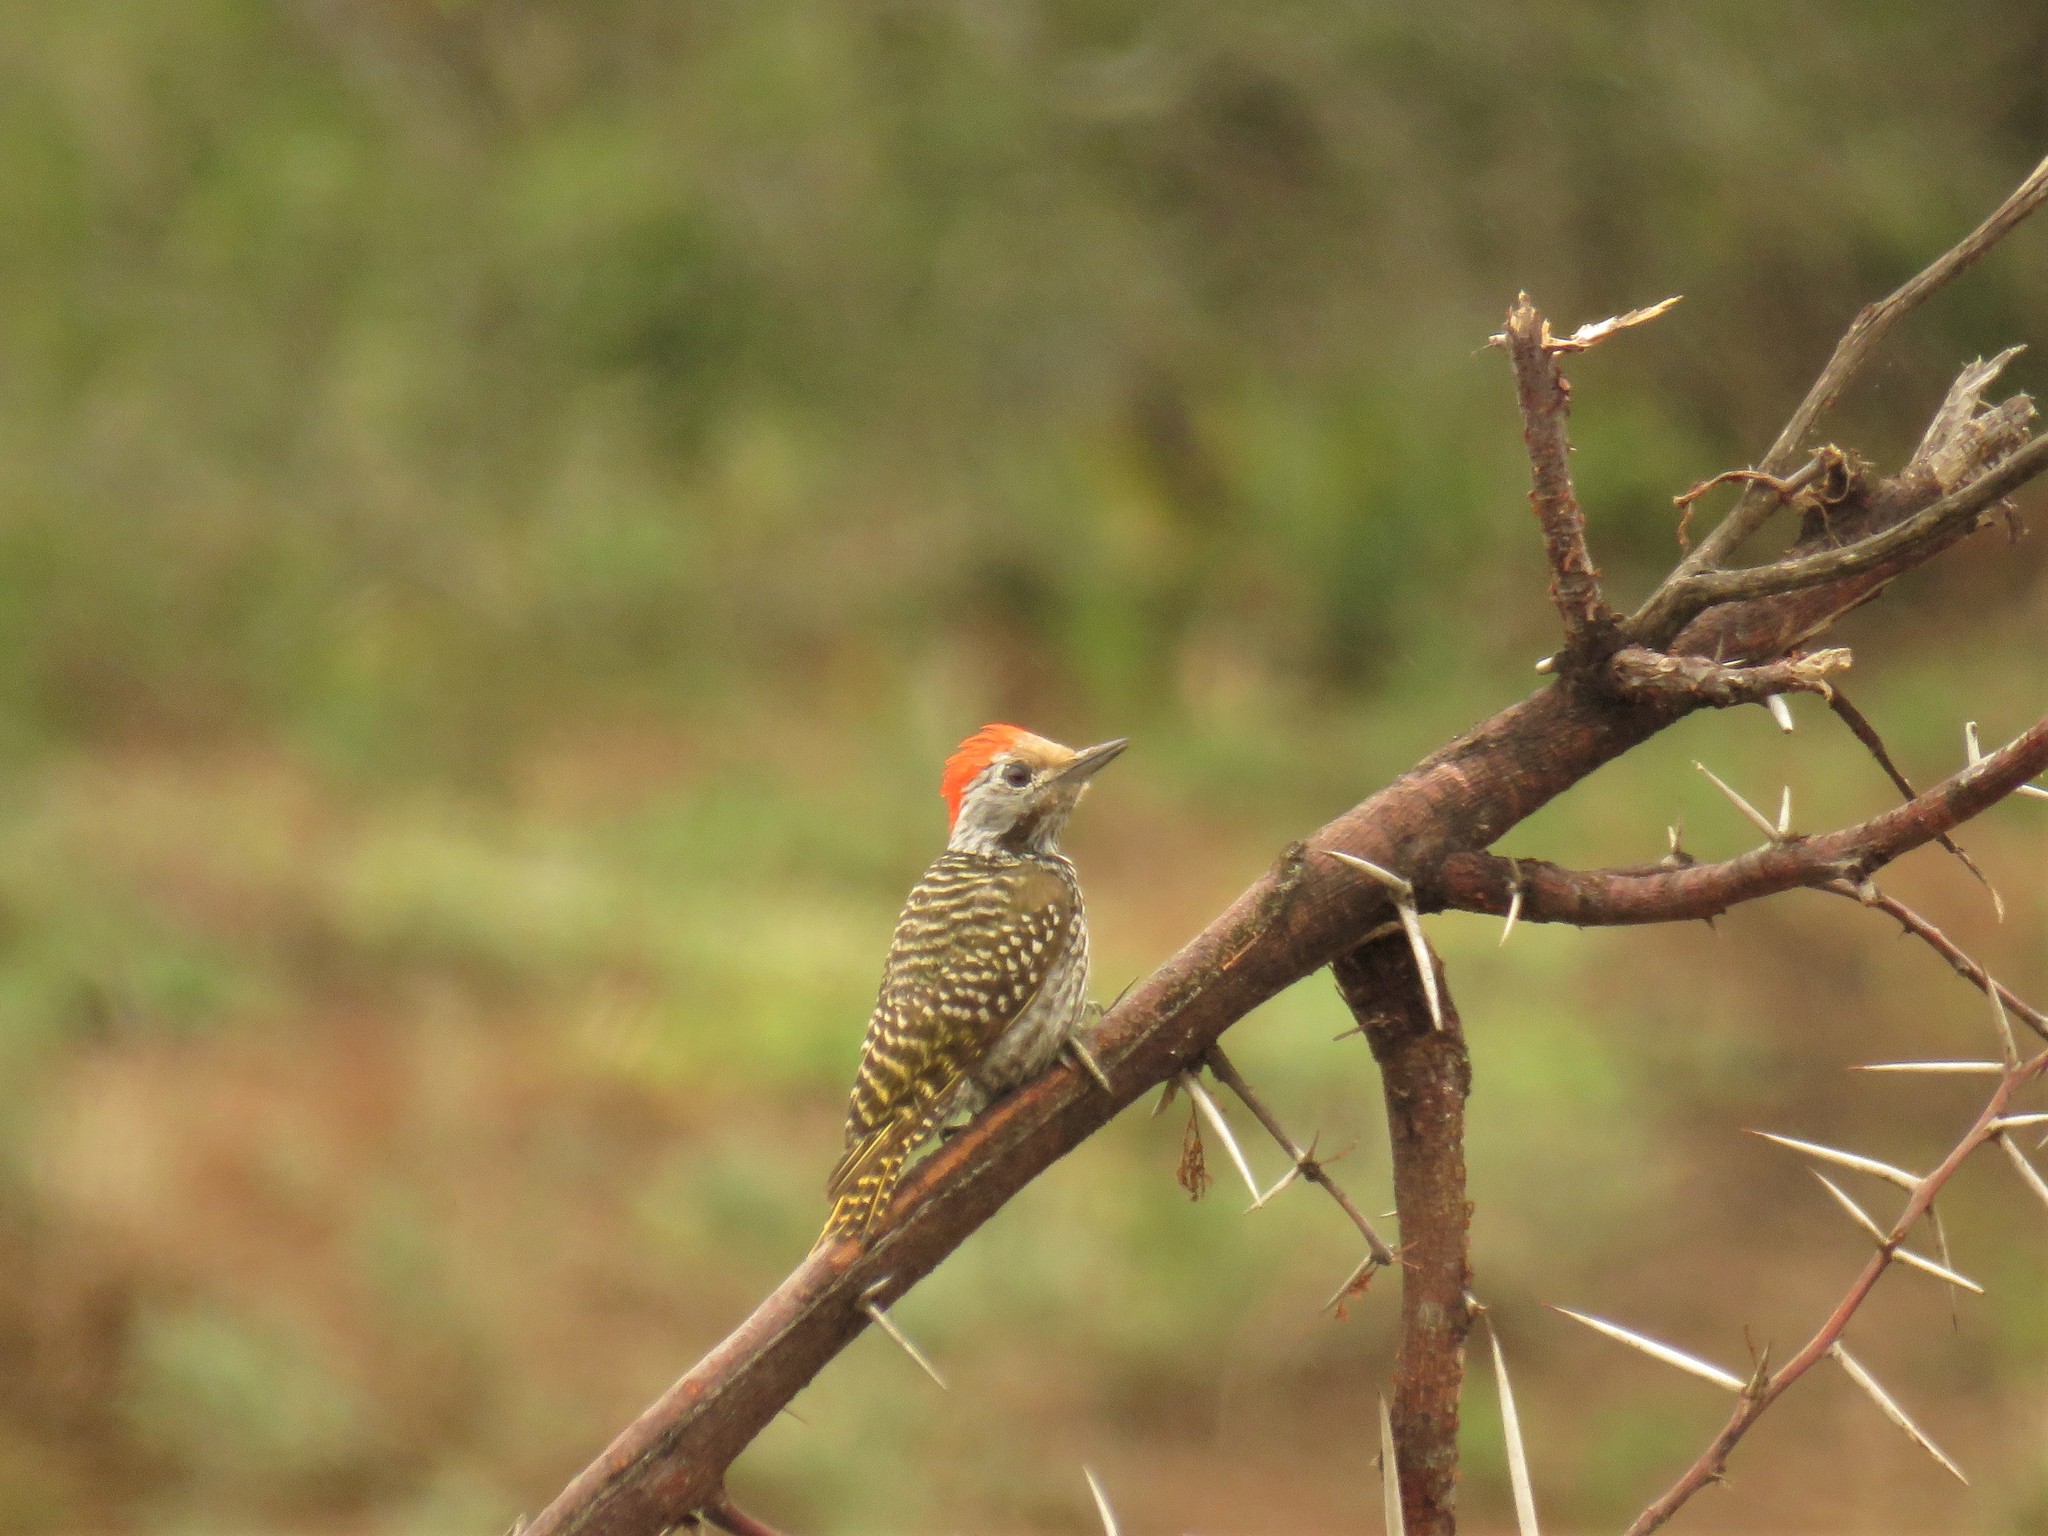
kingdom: Animalia
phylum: Chordata
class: Aves
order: Piciformes
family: Picidae
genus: Dendropicos
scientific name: Dendropicos fuscescens
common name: Cardinal woodpecker
